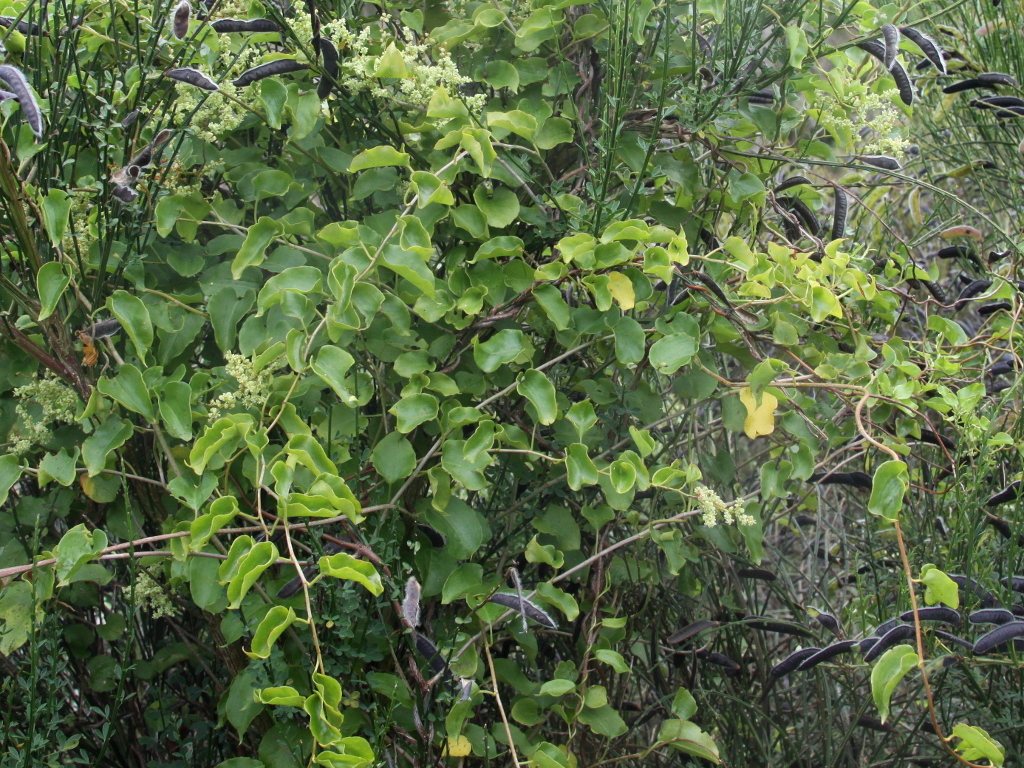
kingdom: Plantae
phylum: Tracheophyta
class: Magnoliopsida
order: Caryophyllales
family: Polygonaceae
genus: Muehlenbeckia
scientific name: Muehlenbeckia australis
